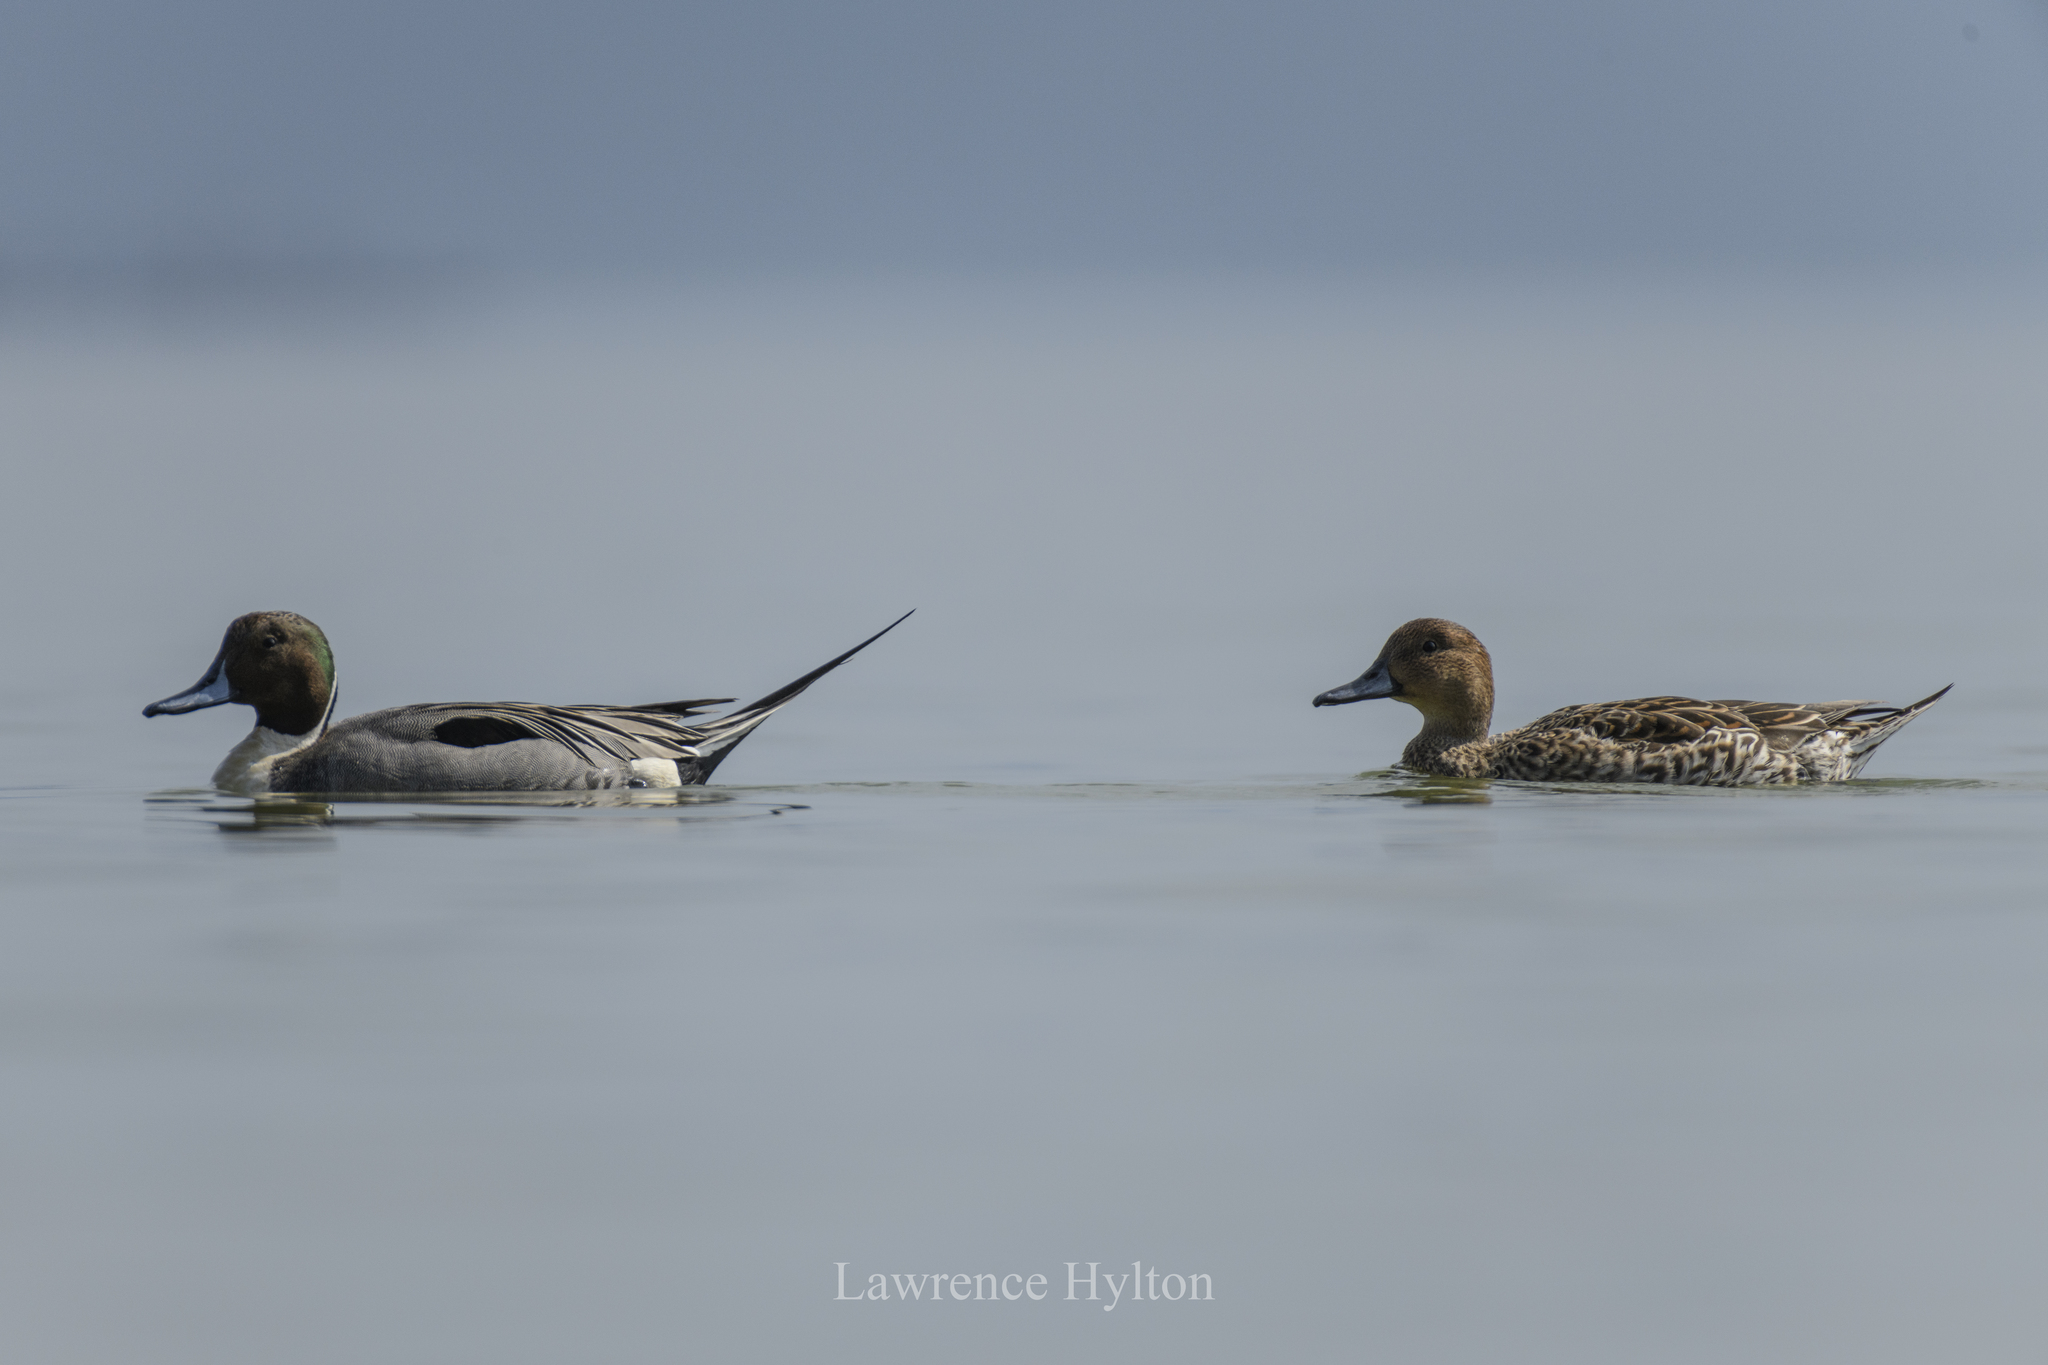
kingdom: Animalia
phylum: Chordata
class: Aves
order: Anseriformes
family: Anatidae
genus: Anas
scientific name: Anas acuta
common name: Northern pintail
